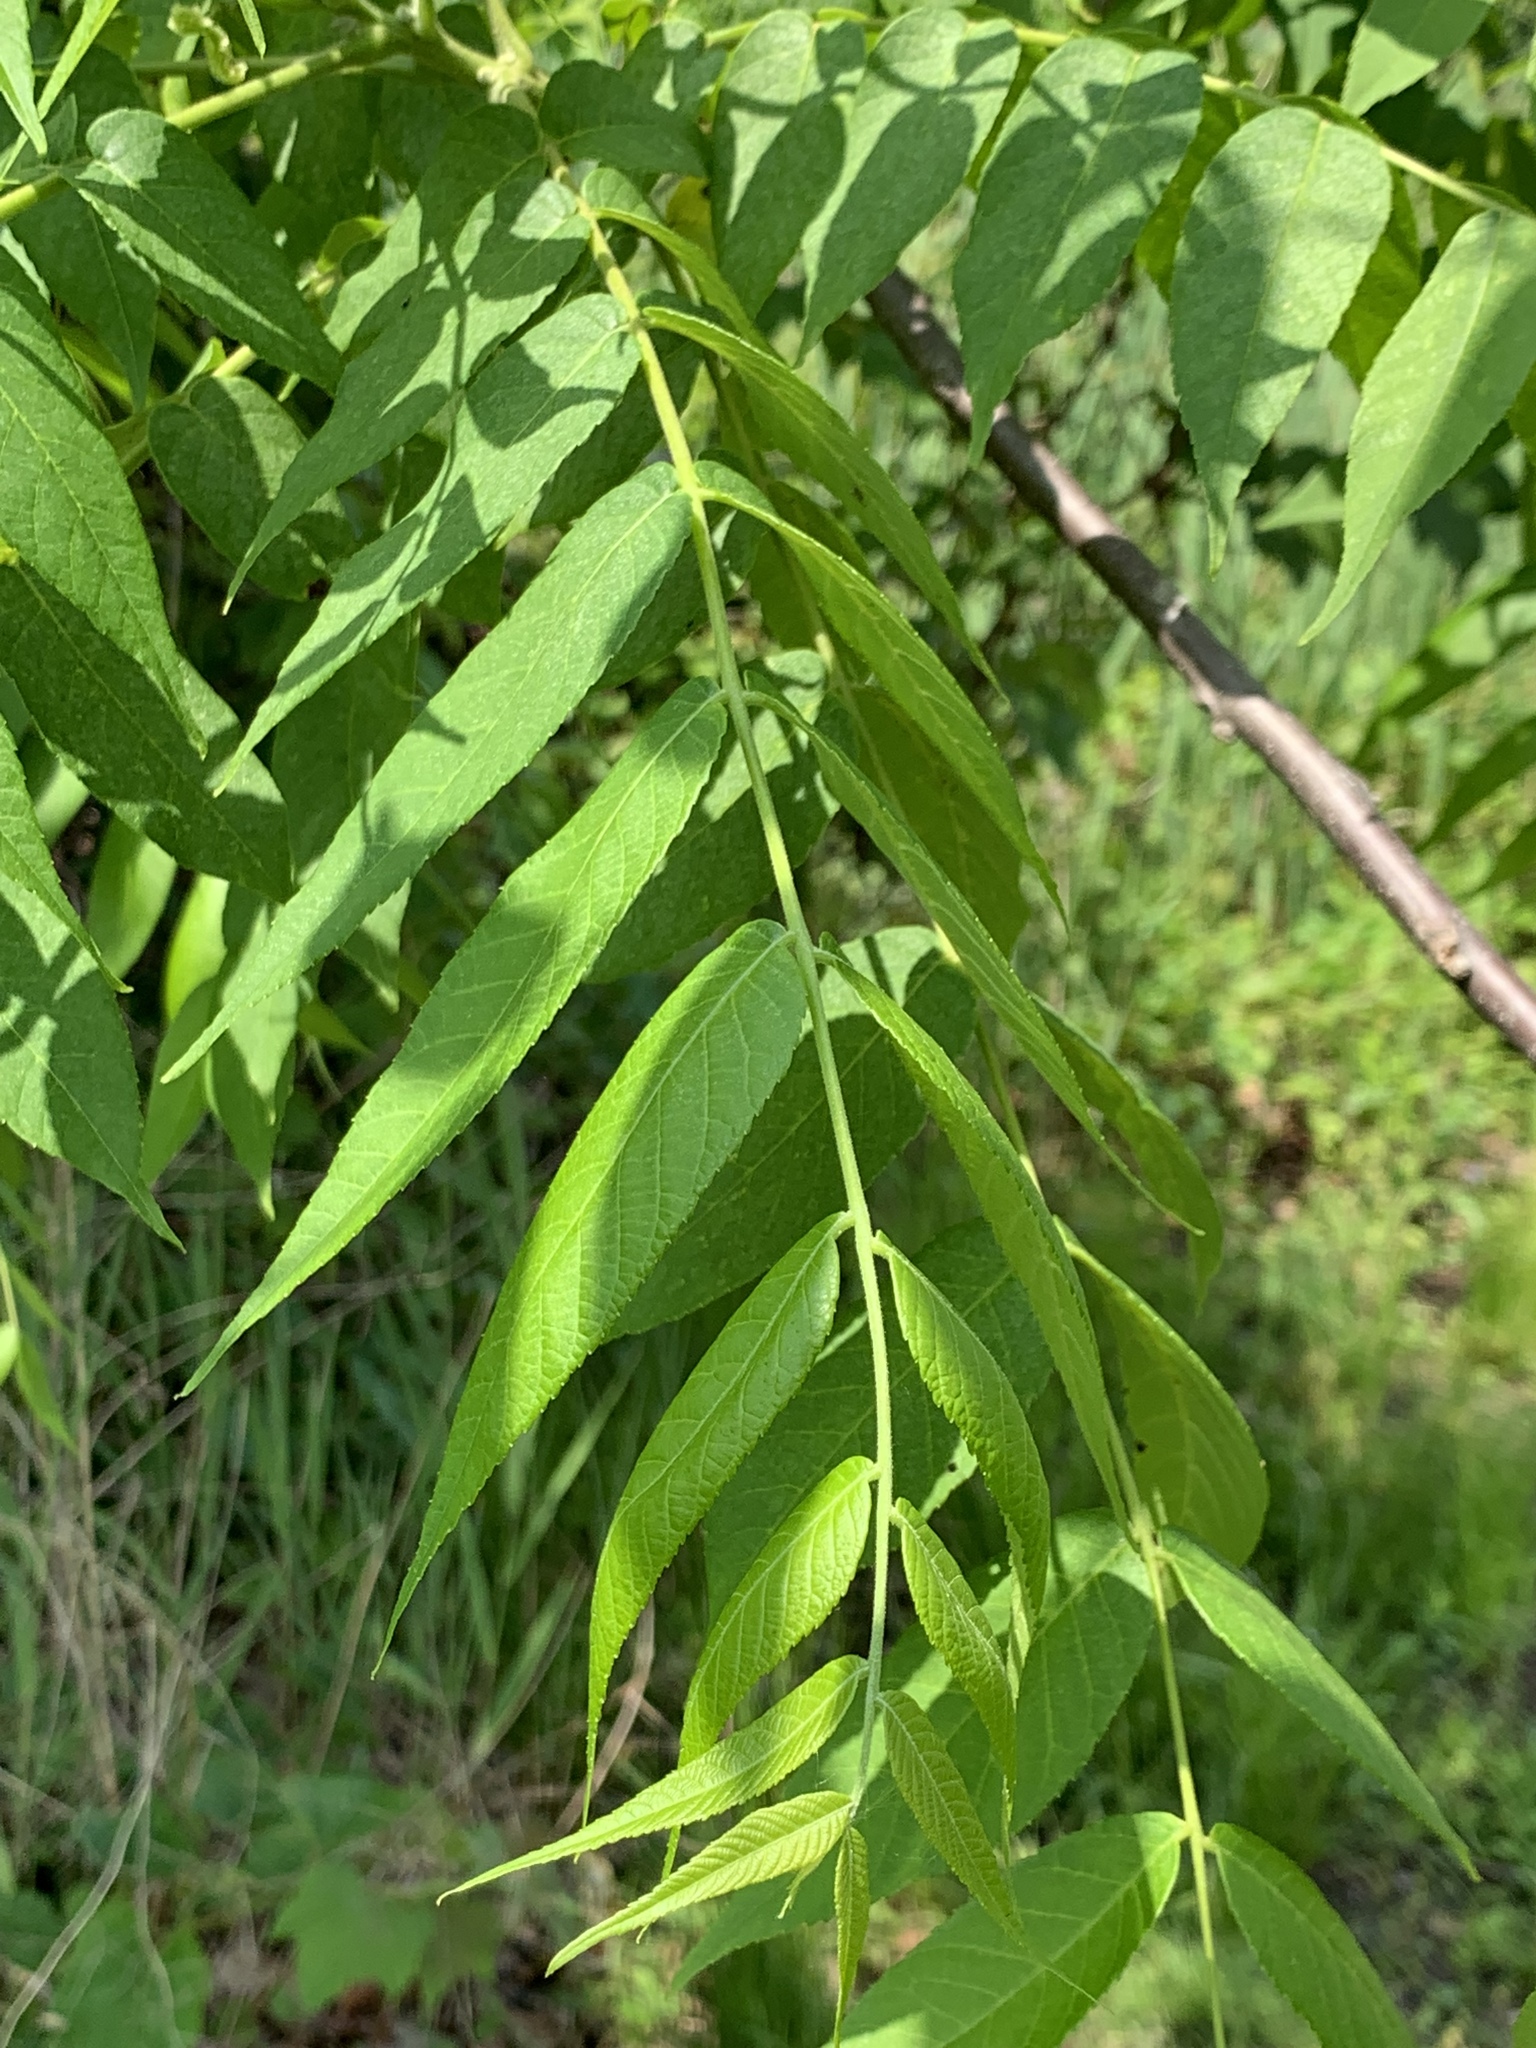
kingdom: Plantae
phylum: Tracheophyta
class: Magnoliopsida
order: Fagales
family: Juglandaceae
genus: Juglans
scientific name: Juglans nigra
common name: Black walnut
